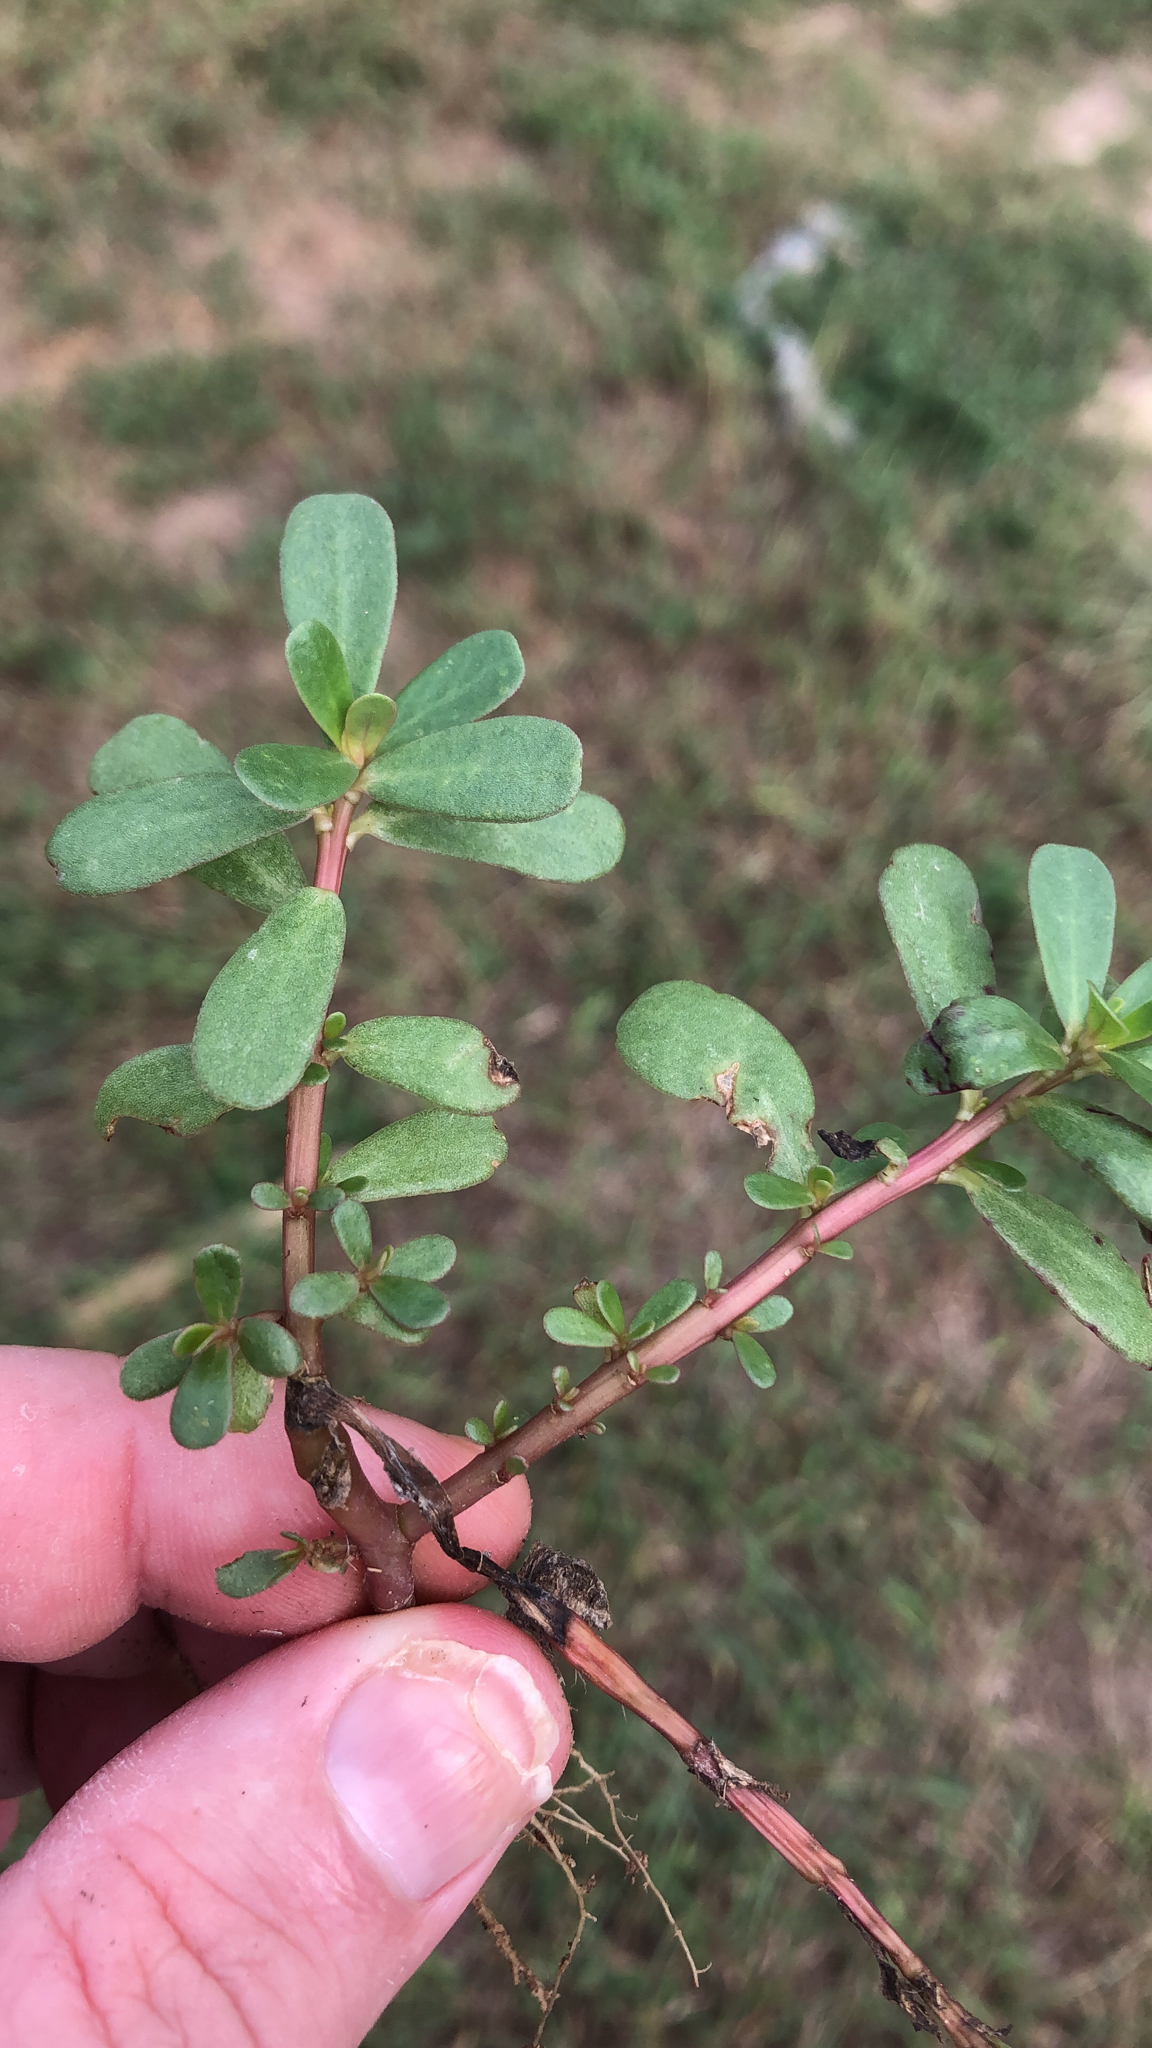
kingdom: Plantae
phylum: Tracheophyta
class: Magnoliopsida
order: Caryophyllales
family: Portulacaceae
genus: Portulaca
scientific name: Portulaca oleracea
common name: Common purslane
